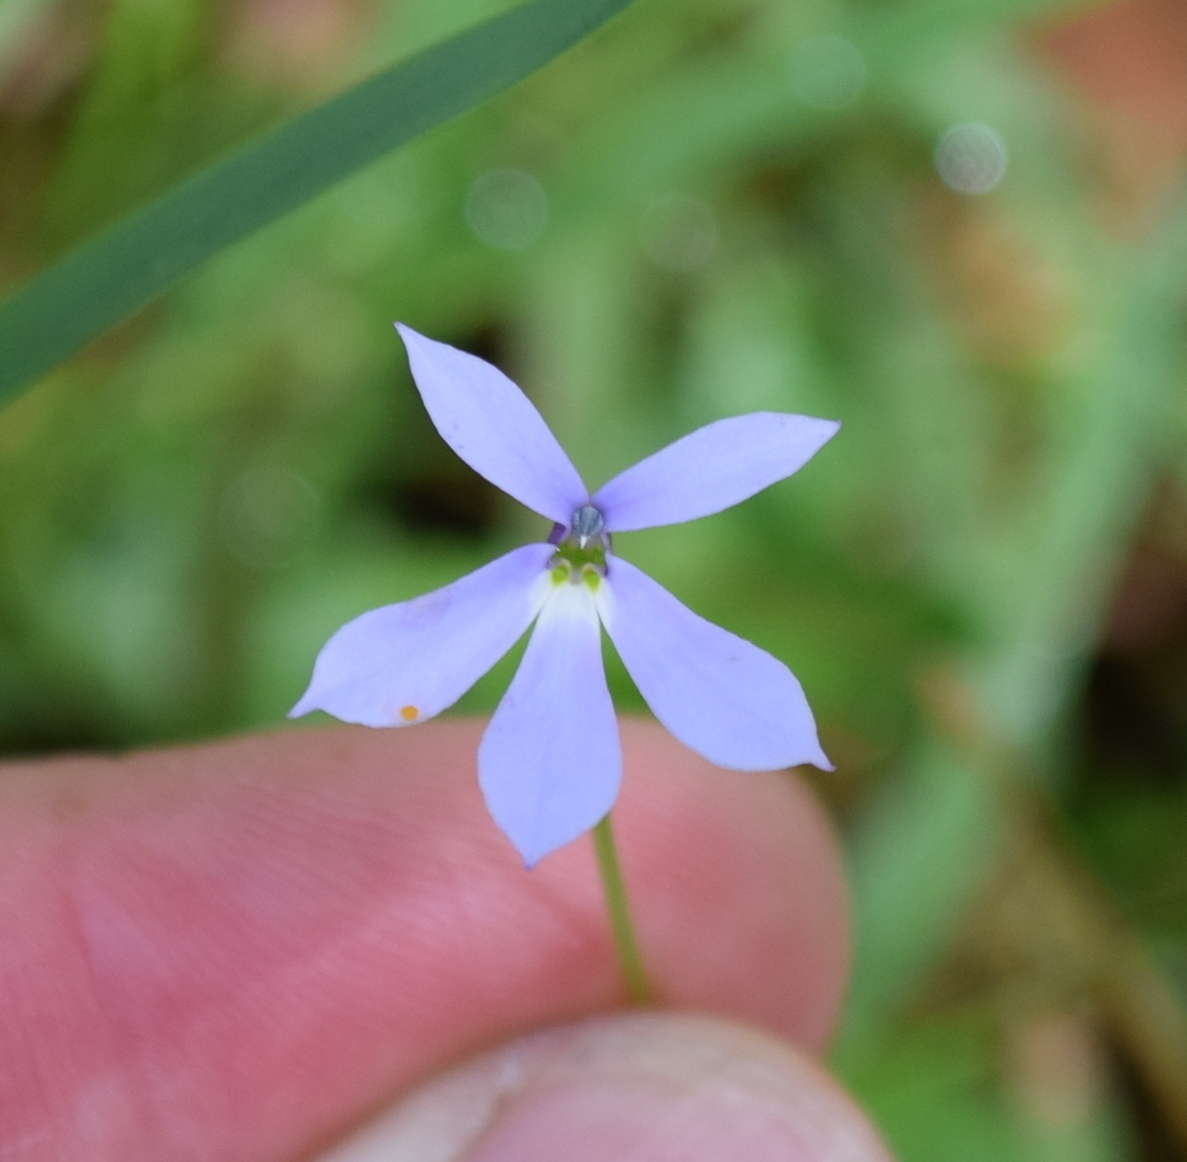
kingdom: Plantae
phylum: Tracheophyta
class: Magnoliopsida
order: Asterales
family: Campanulaceae
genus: Lobelia
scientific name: Lobelia beaugleholei
